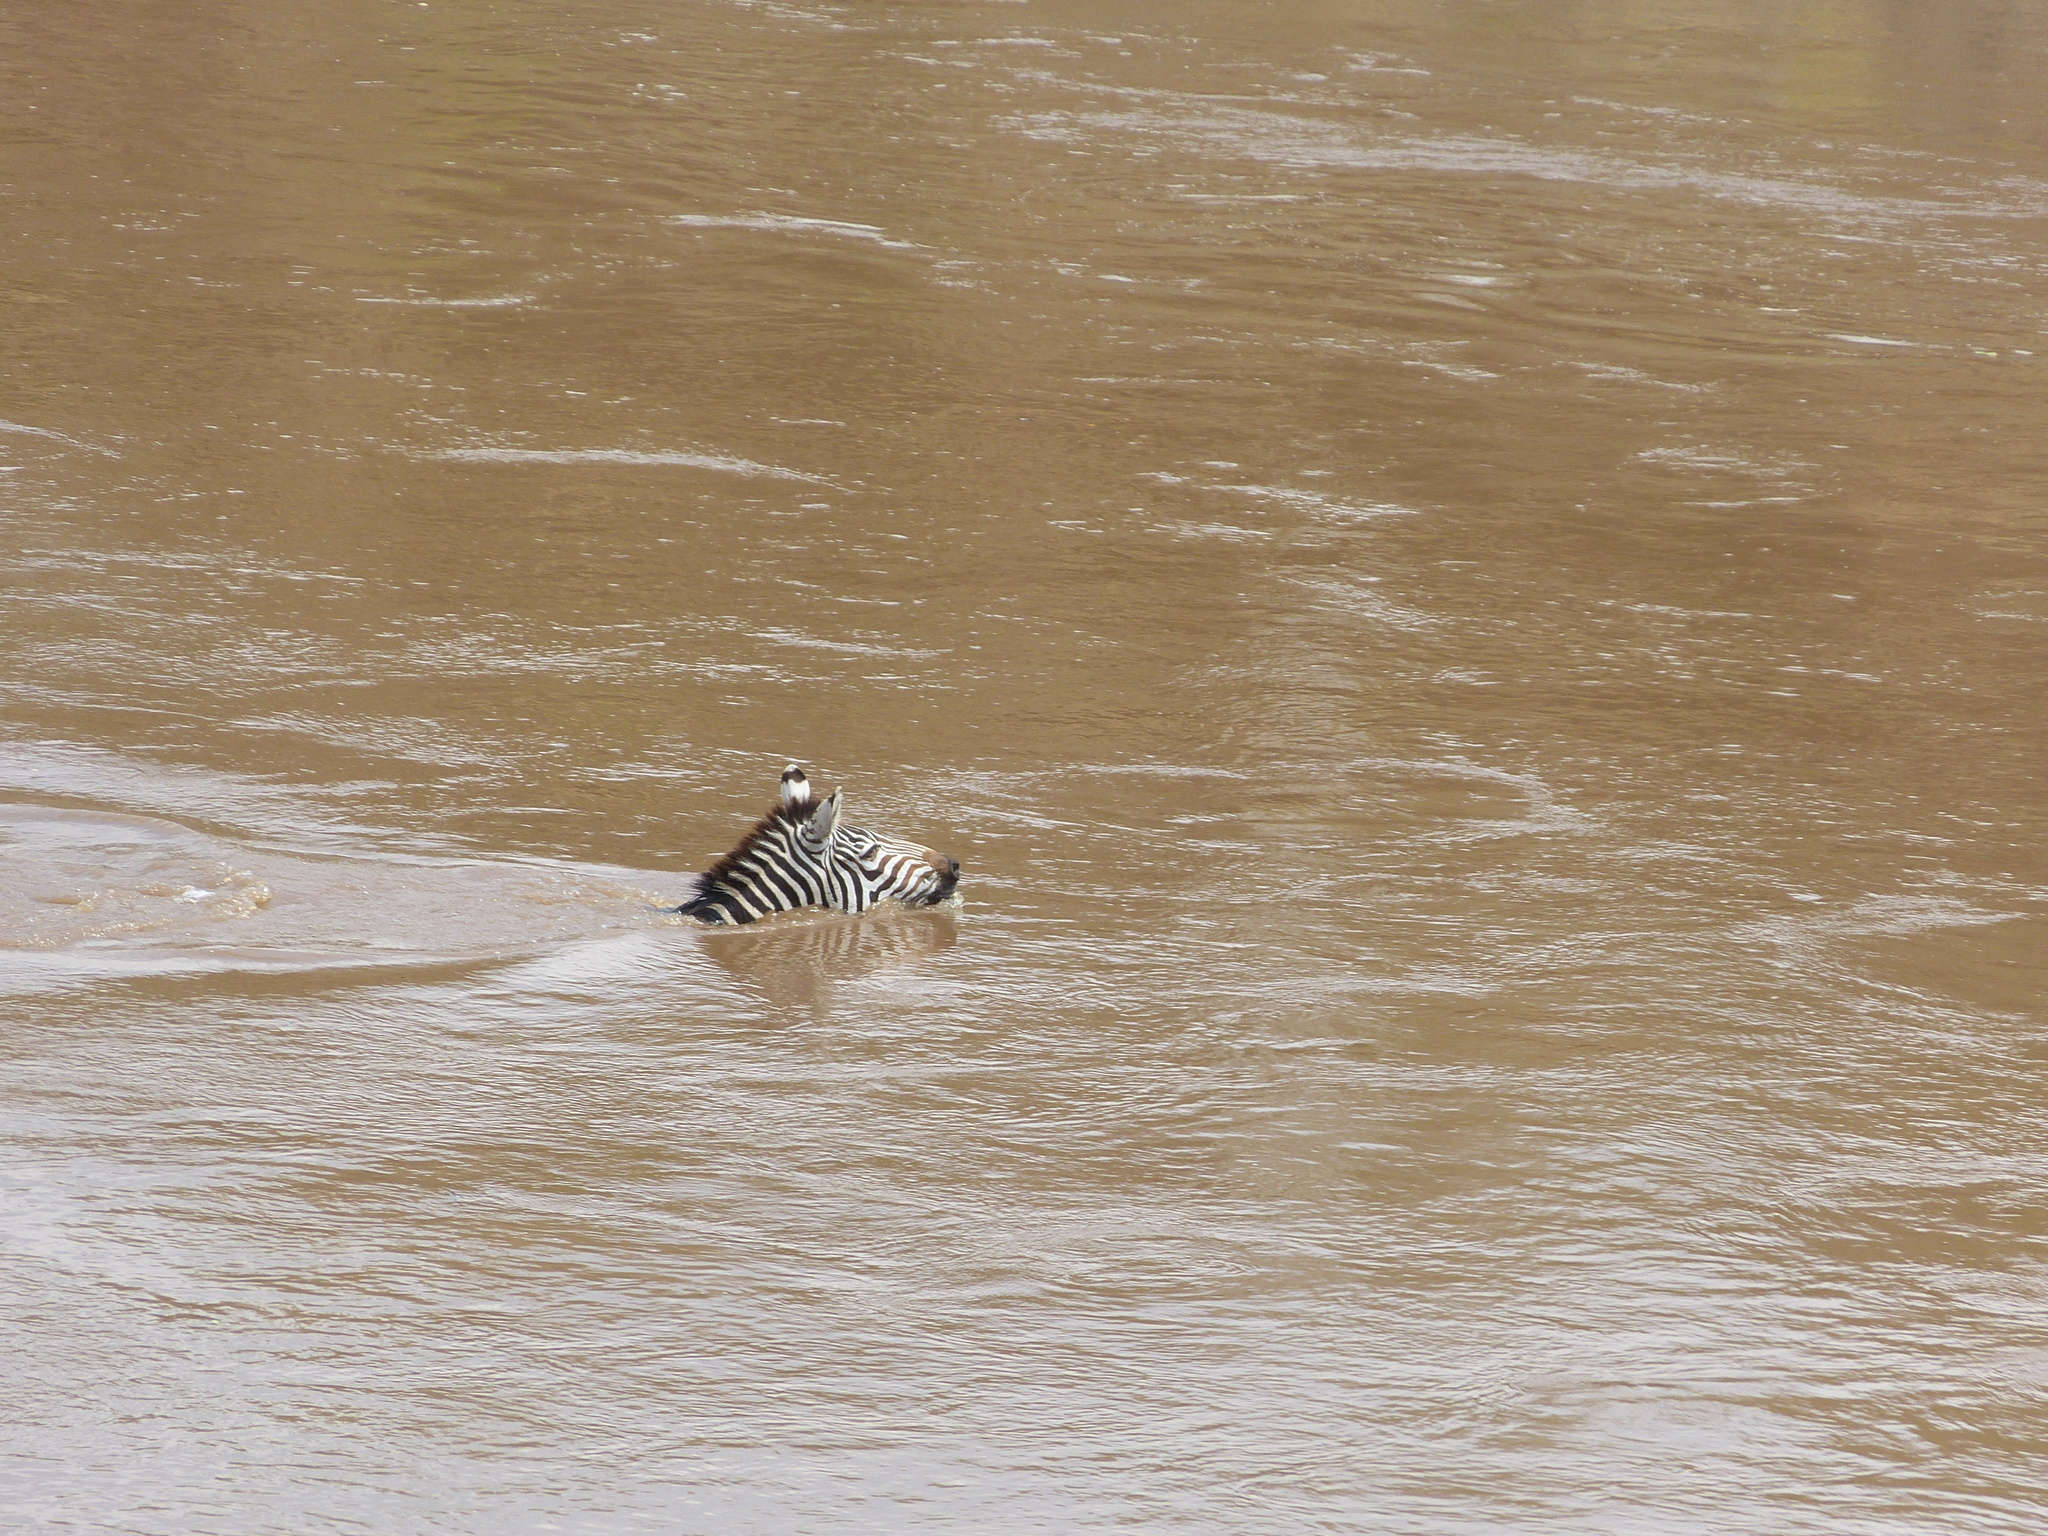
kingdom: Animalia
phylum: Chordata
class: Mammalia
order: Perissodactyla
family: Equidae
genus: Equus
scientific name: Equus quagga
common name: Plains zebra
